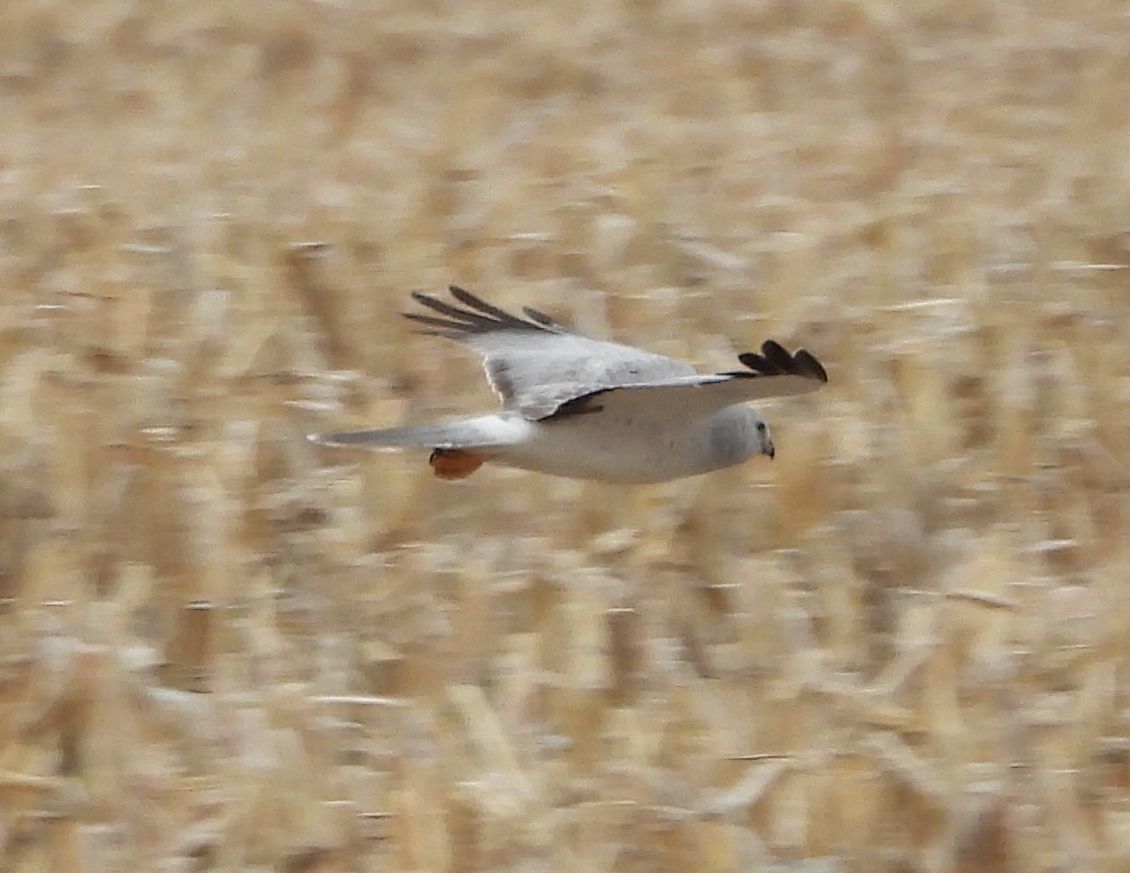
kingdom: Animalia
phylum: Chordata
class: Aves
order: Accipitriformes
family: Accipitridae
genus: Circus
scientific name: Circus cyaneus
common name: Hen harrier
